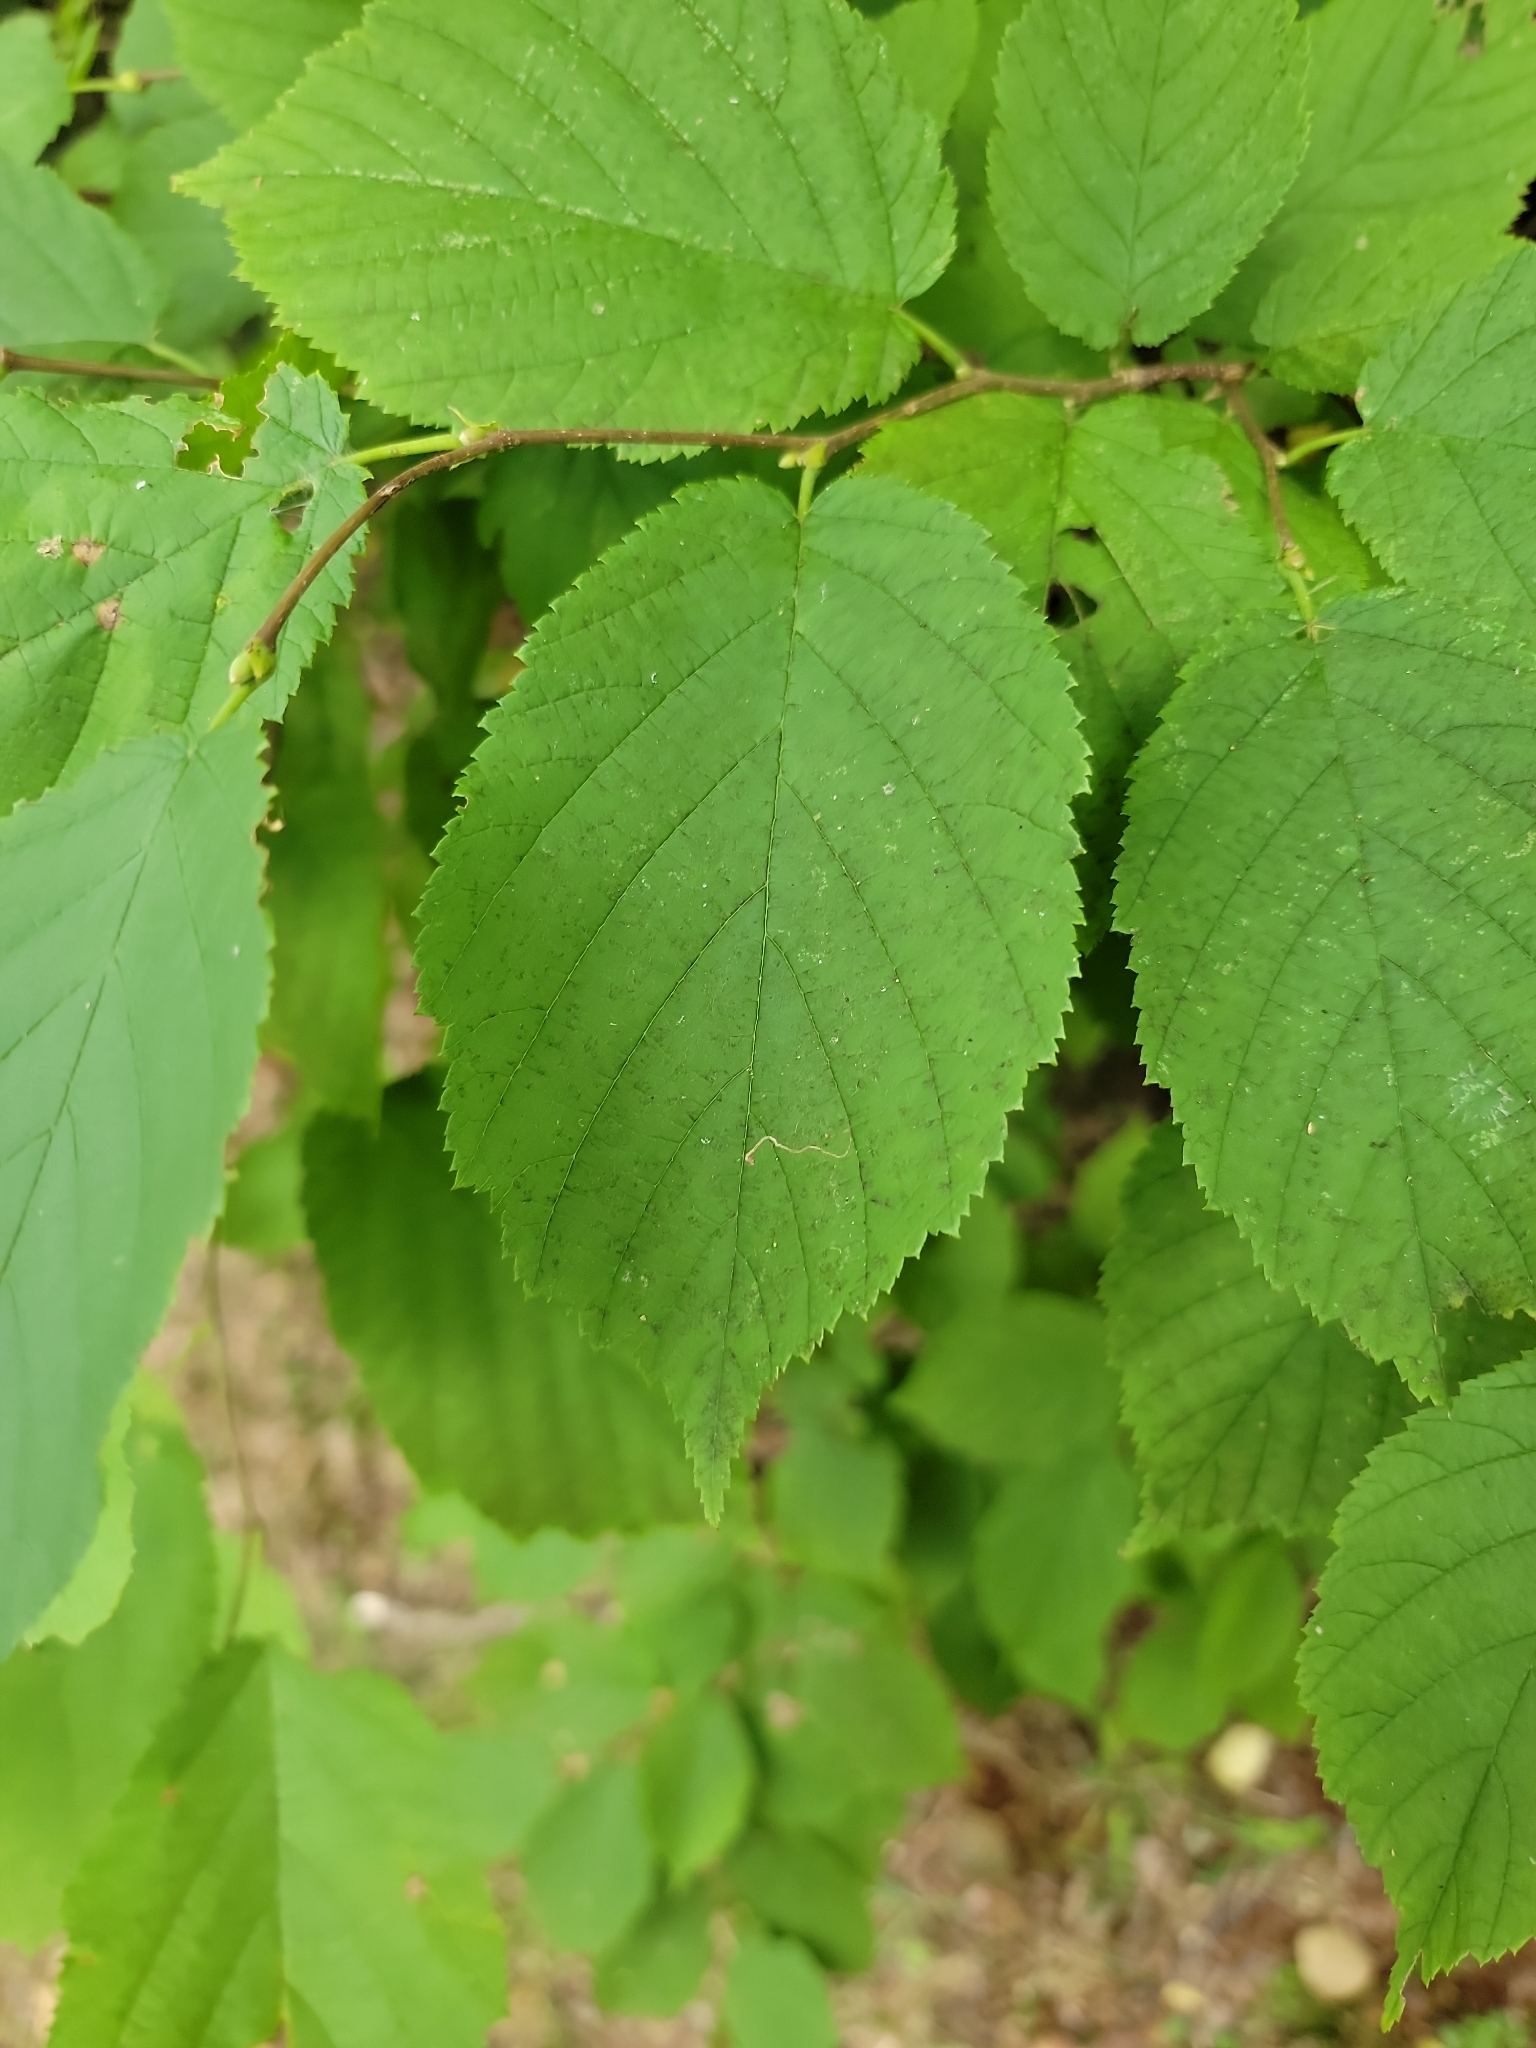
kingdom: Plantae
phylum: Tracheophyta
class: Magnoliopsida
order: Fagales
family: Betulaceae
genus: Corylus
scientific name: Corylus cornuta
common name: Beaked hazel
